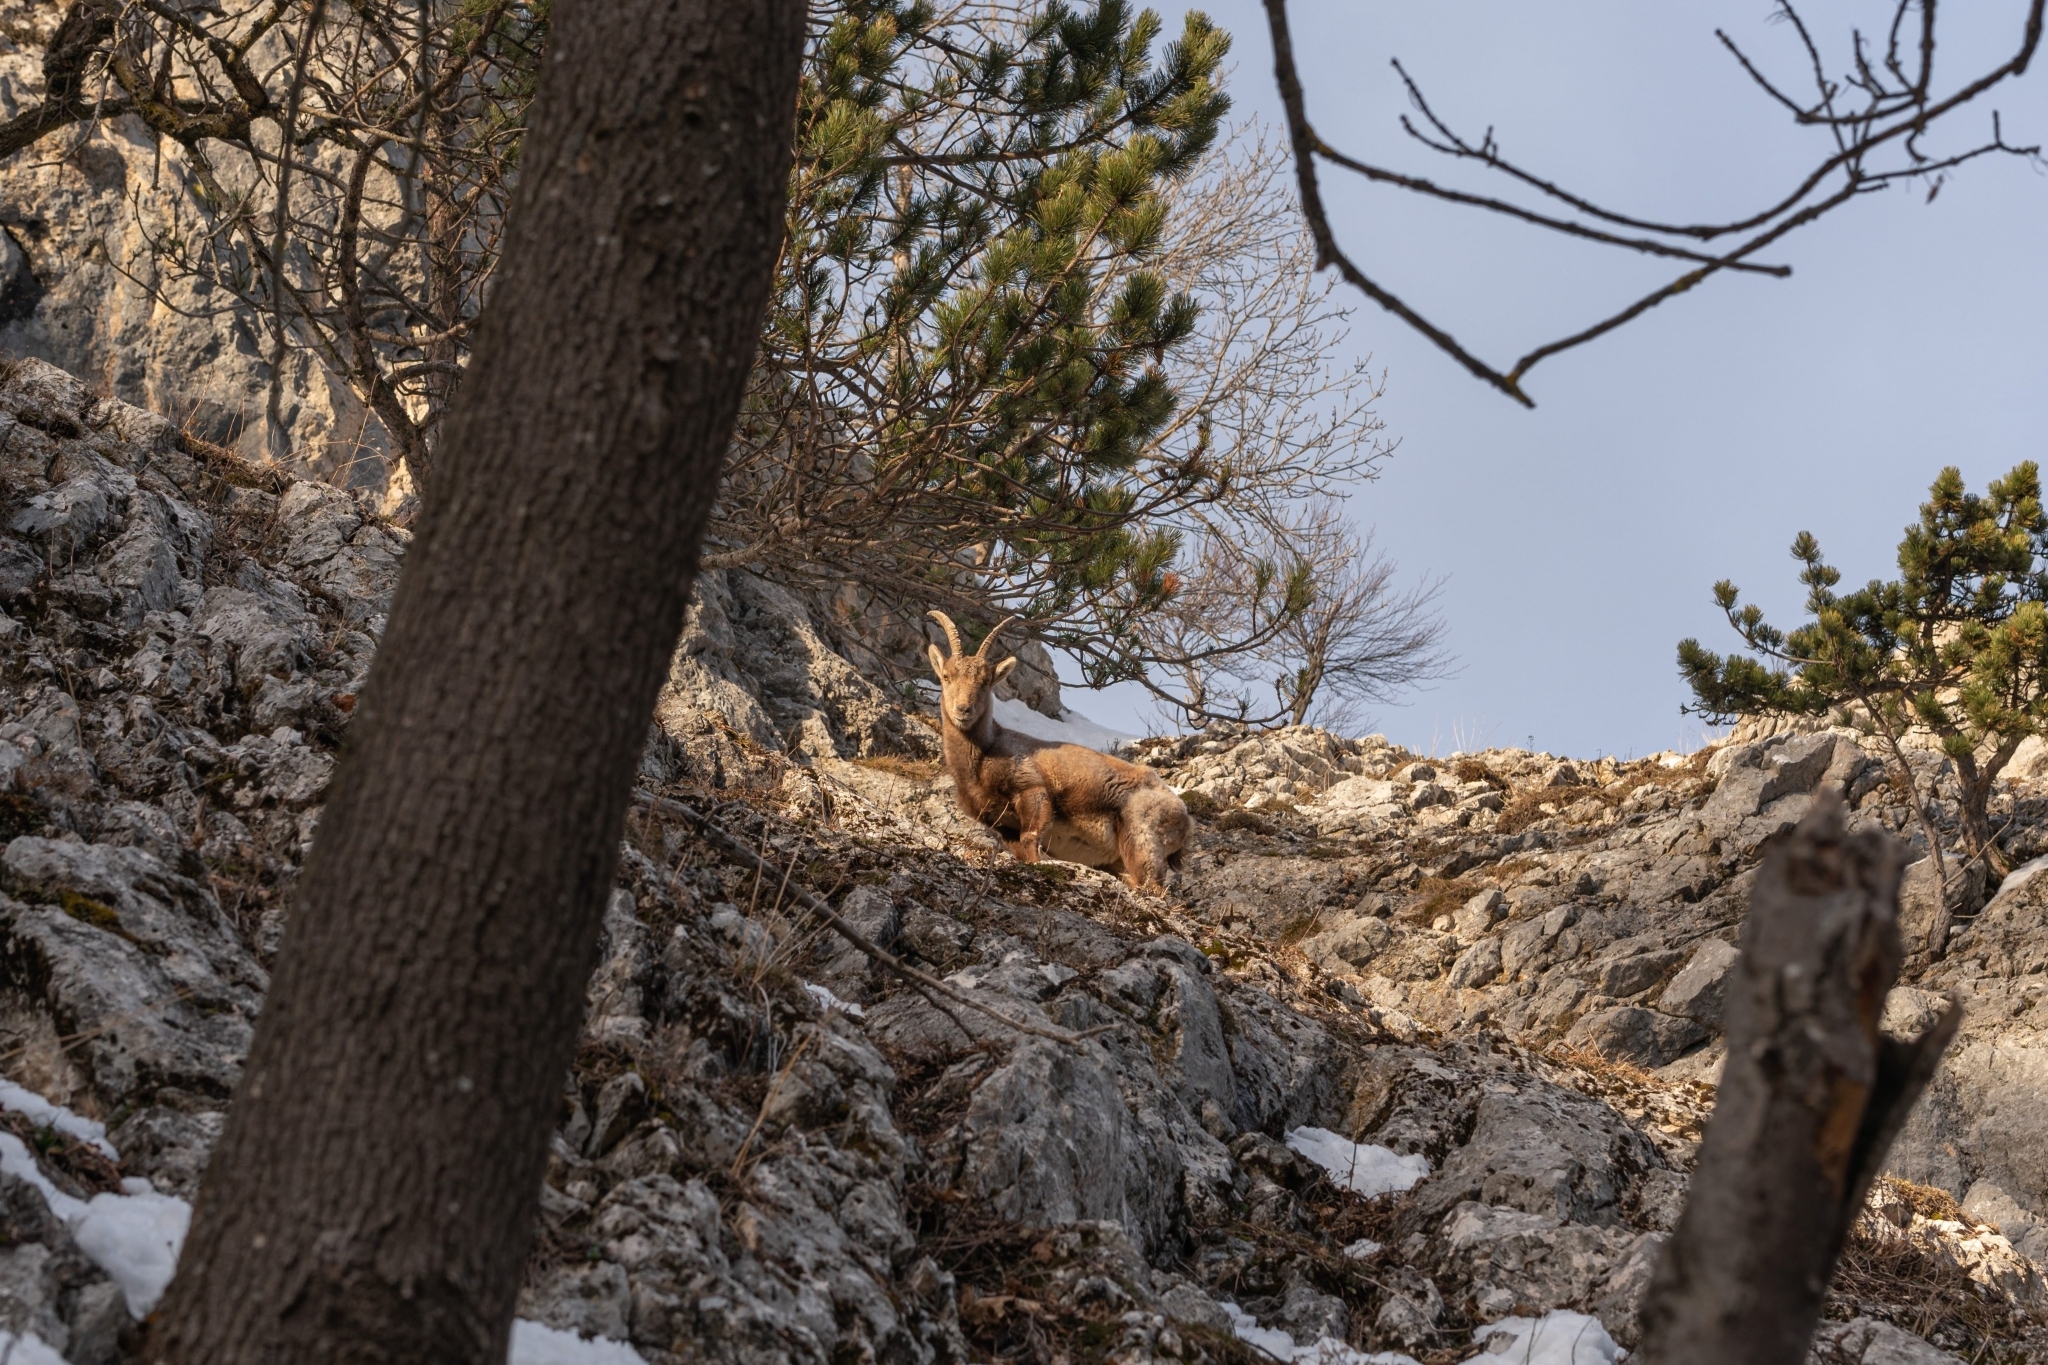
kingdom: Animalia
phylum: Chordata
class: Mammalia
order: Artiodactyla
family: Bovidae
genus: Capra
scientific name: Capra ibex
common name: Alpine ibex
